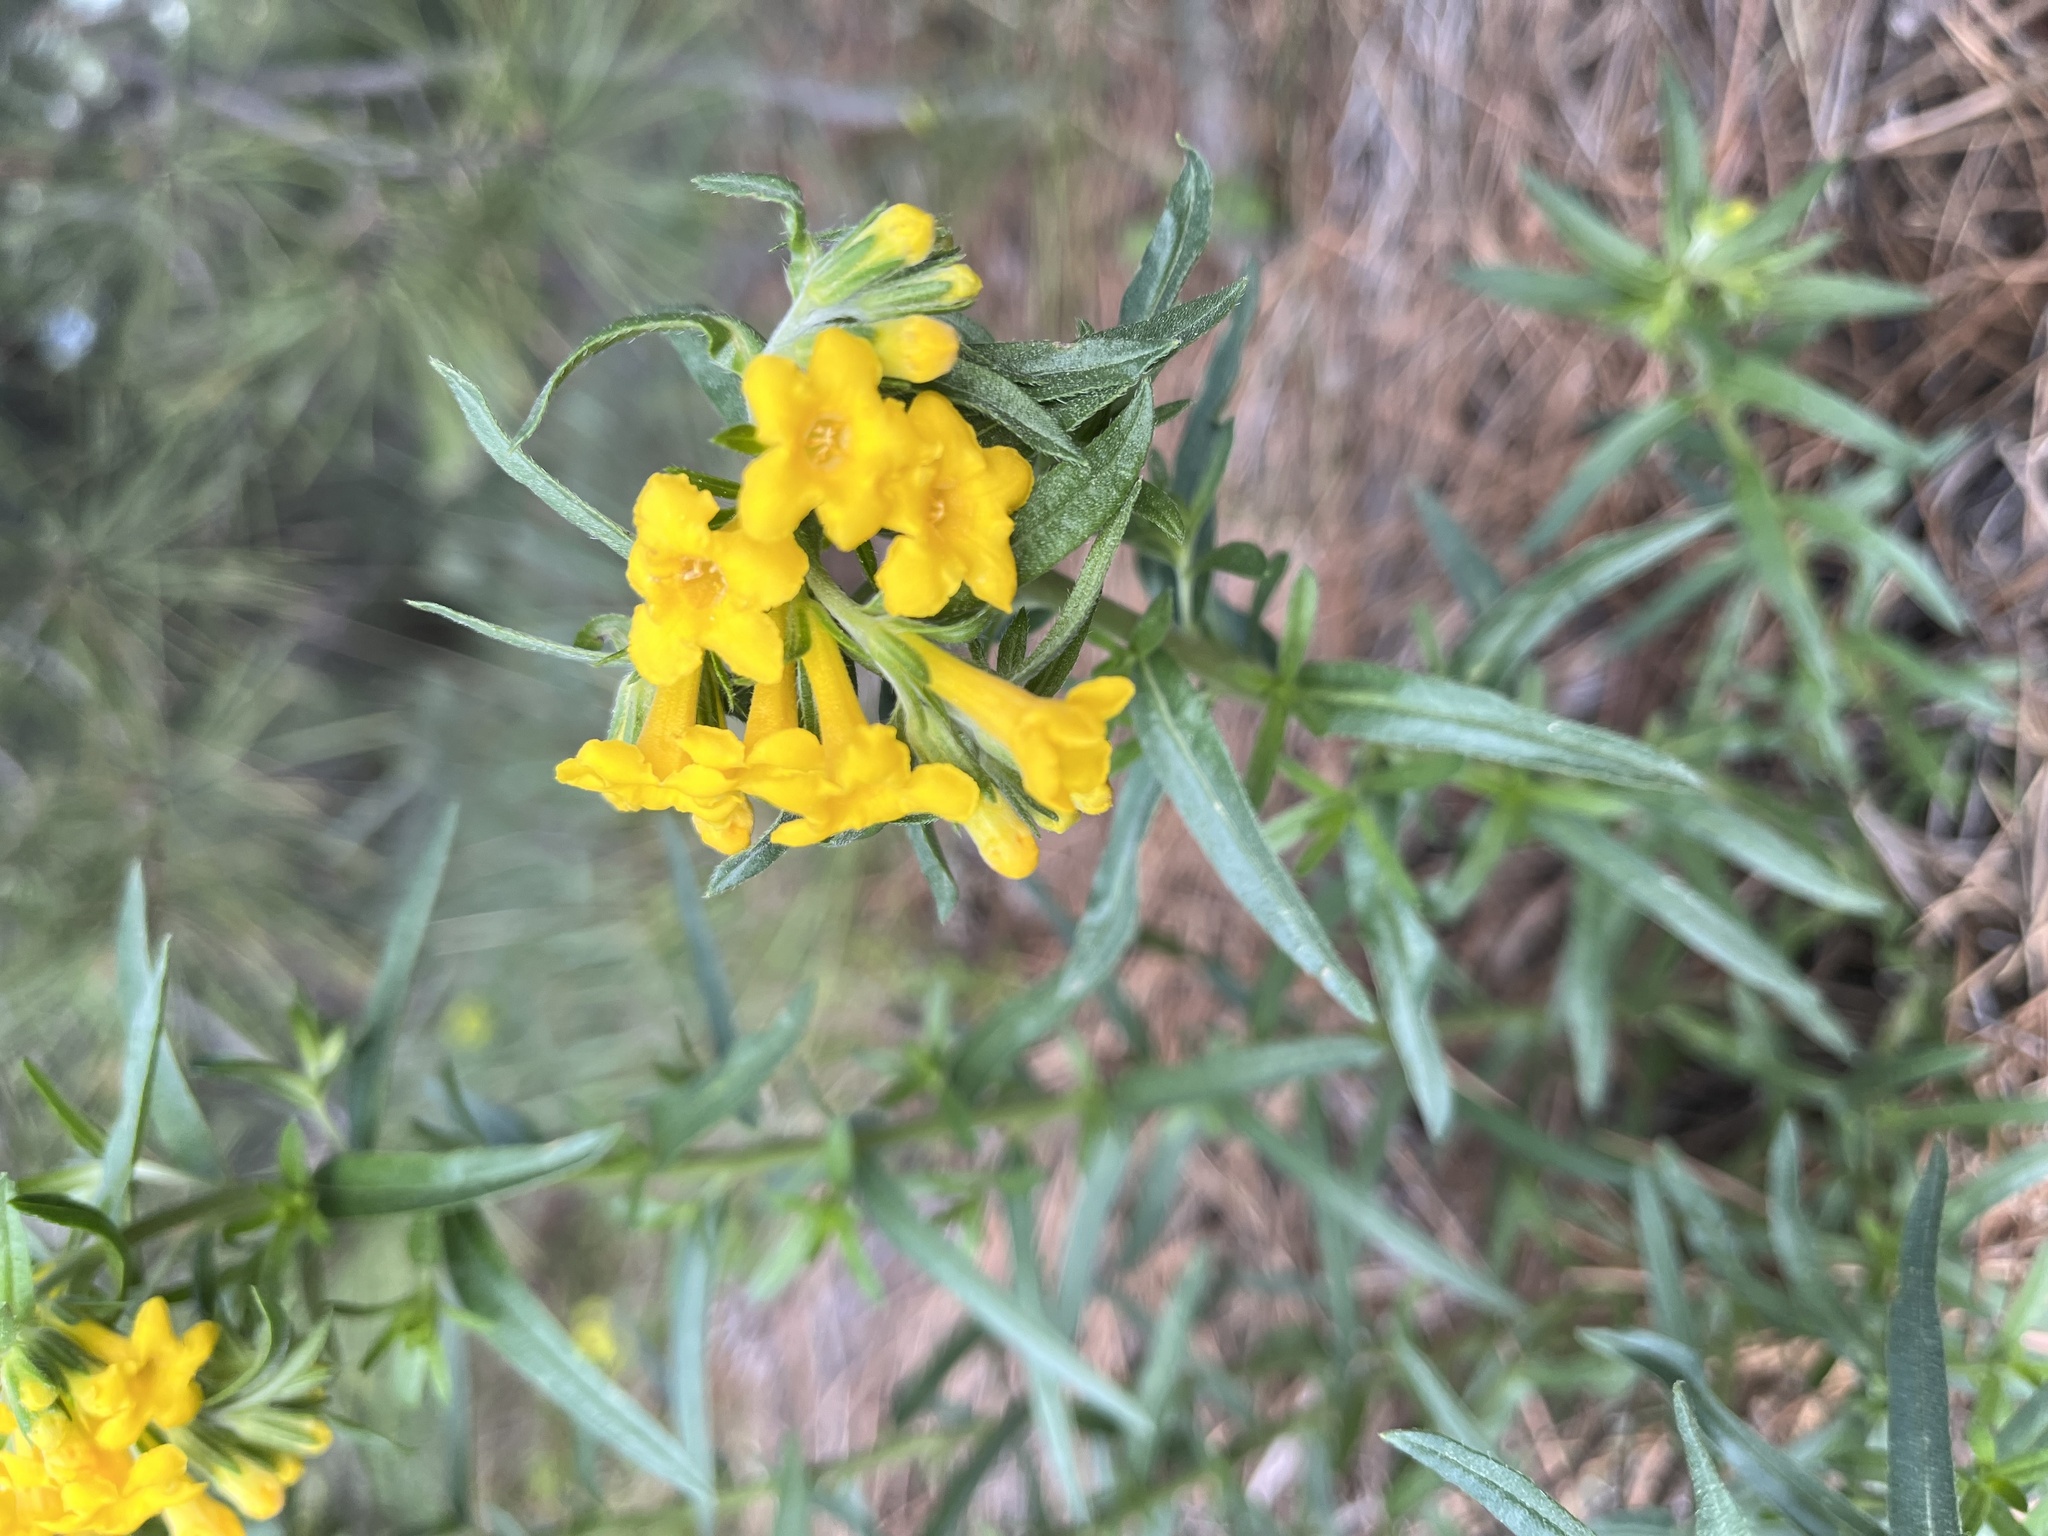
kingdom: Plantae
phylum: Tracheophyta
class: Magnoliopsida
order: Boraginales
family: Boraginaceae
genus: Lithospermum
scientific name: Lithospermum multiflorum
